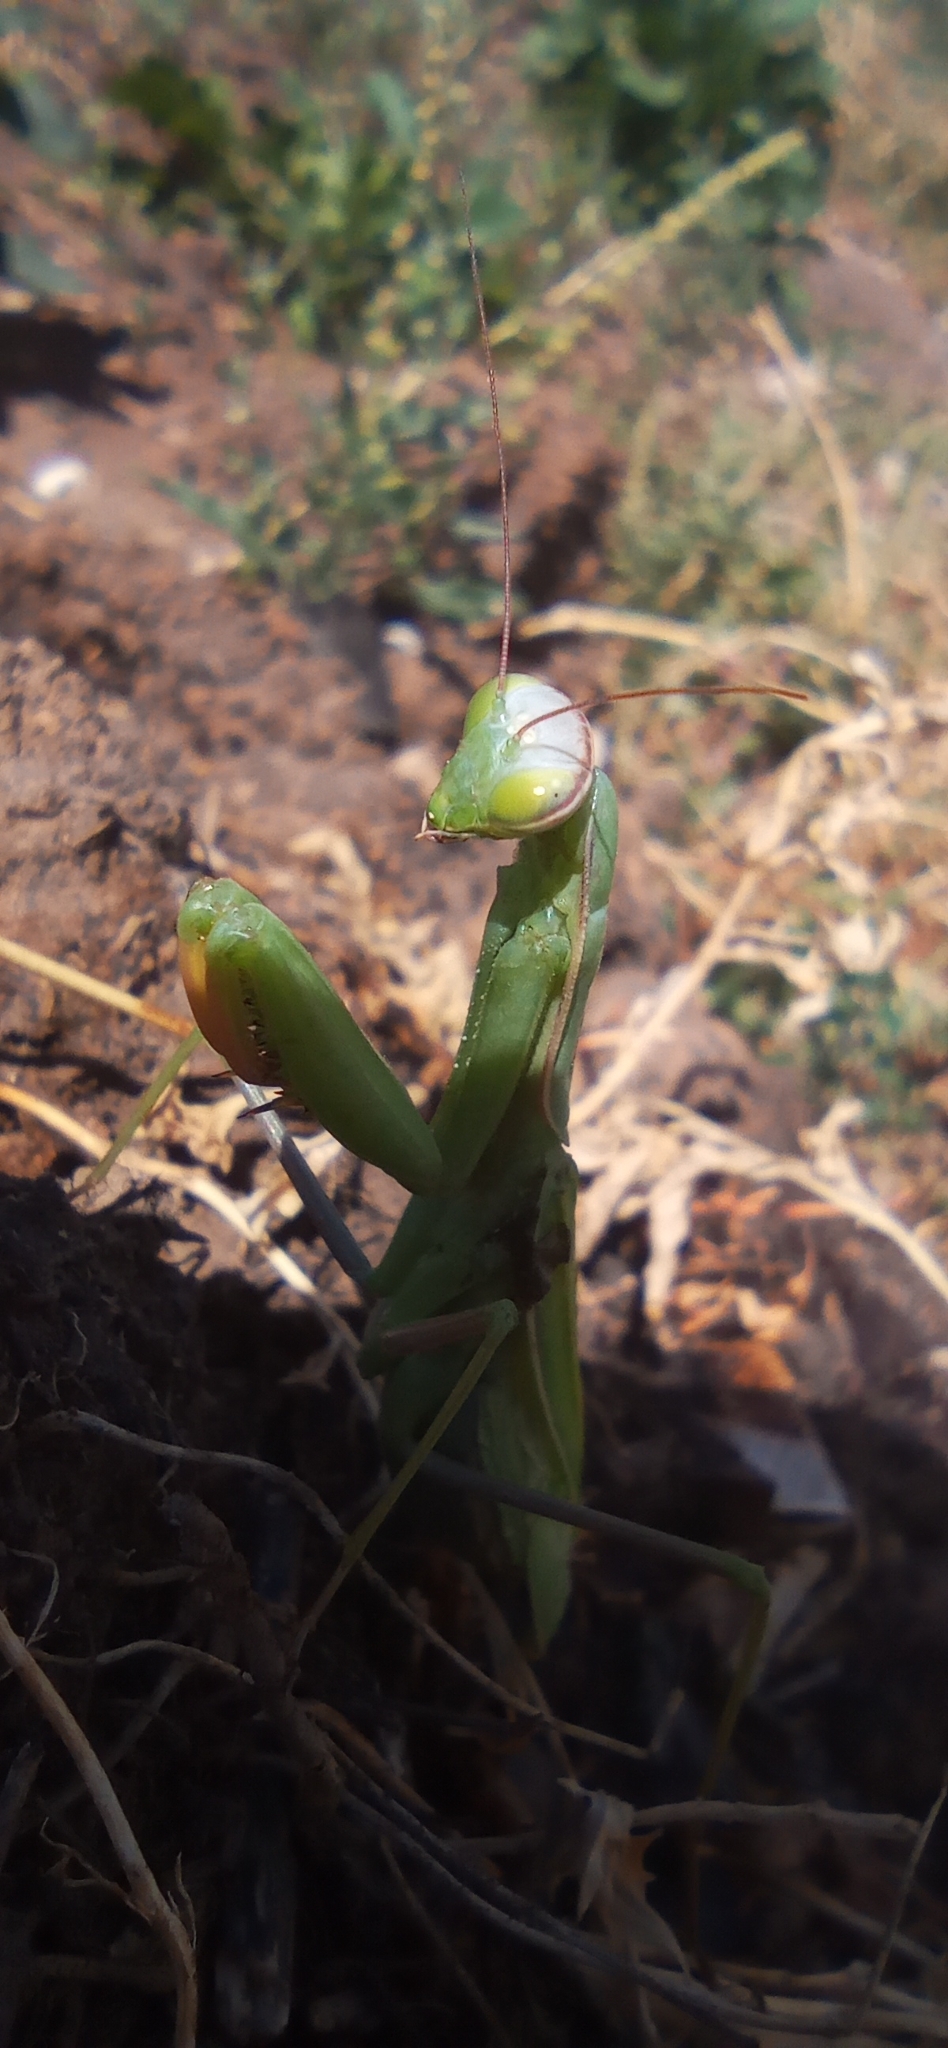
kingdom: Animalia
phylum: Arthropoda
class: Insecta
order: Mantodea
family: Mantidae
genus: Mantis
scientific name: Mantis religiosa
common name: Praying mantis
